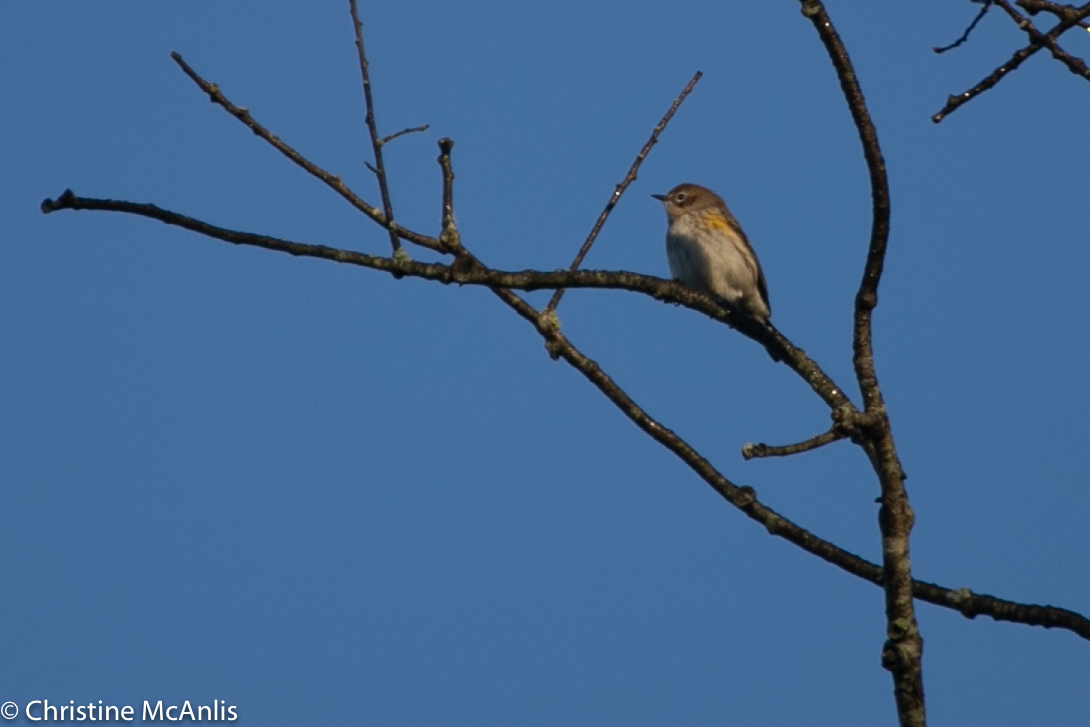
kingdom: Animalia
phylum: Chordata
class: Aves
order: Passeriformes
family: Parulidae
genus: Setophaga
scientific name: Setophaga coronata
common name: Myrtle warbler
